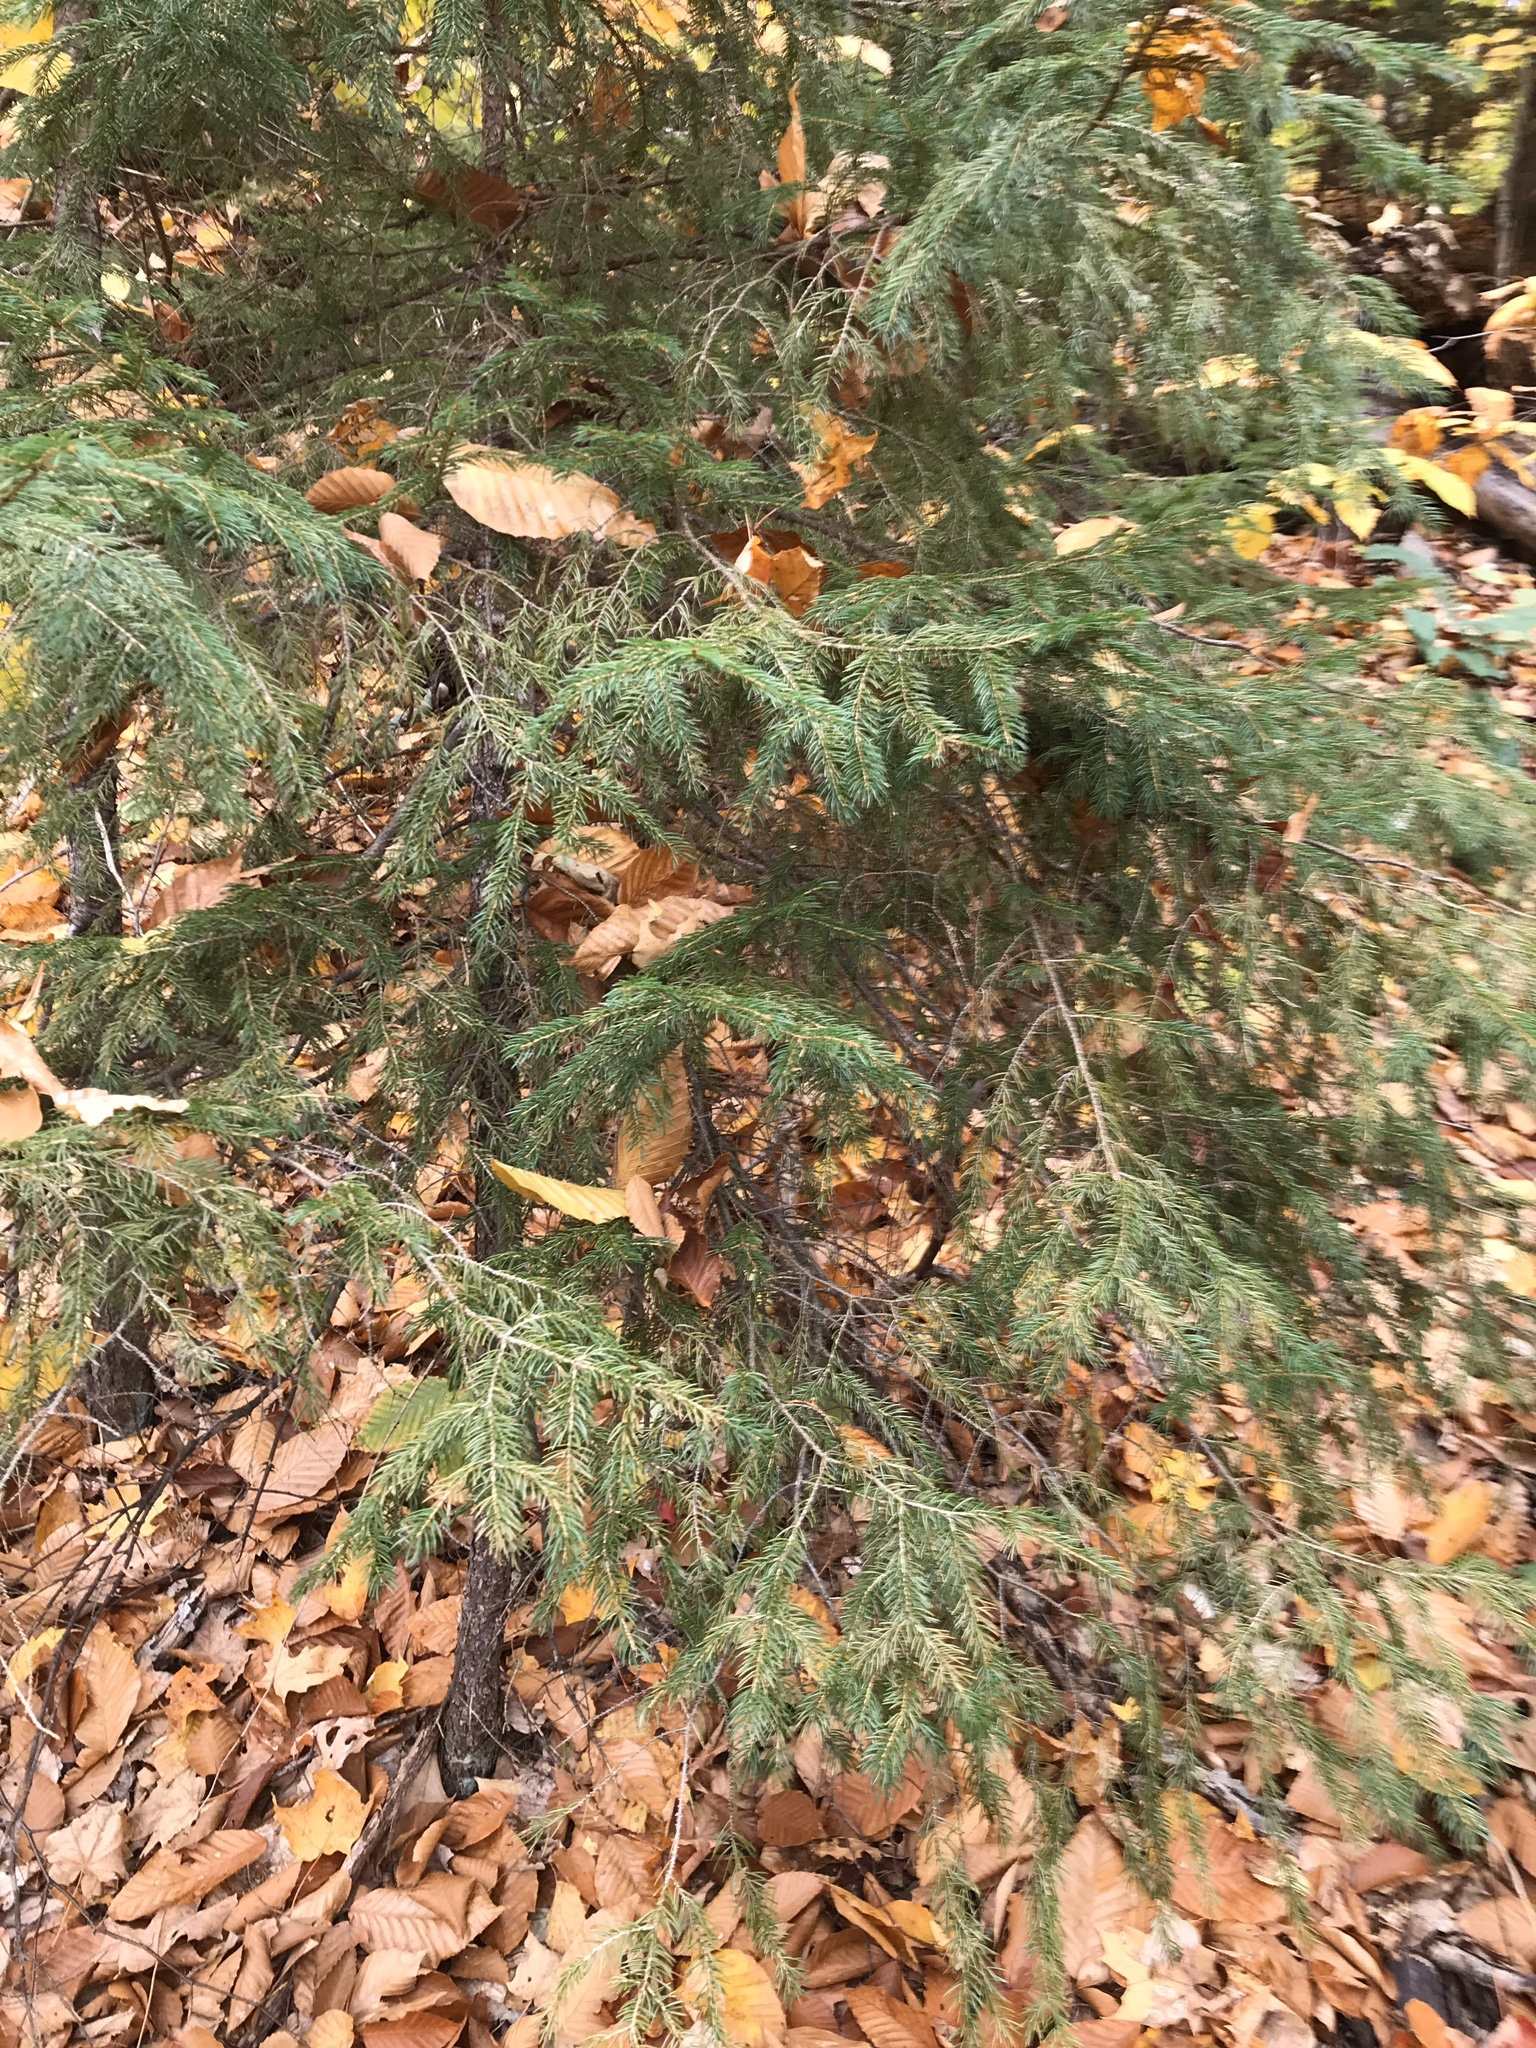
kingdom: Plantae
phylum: Tracheophyta
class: Pinopsida
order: Pinales
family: Pinaceae
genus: Picea
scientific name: Picea rubens
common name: Red spruce
